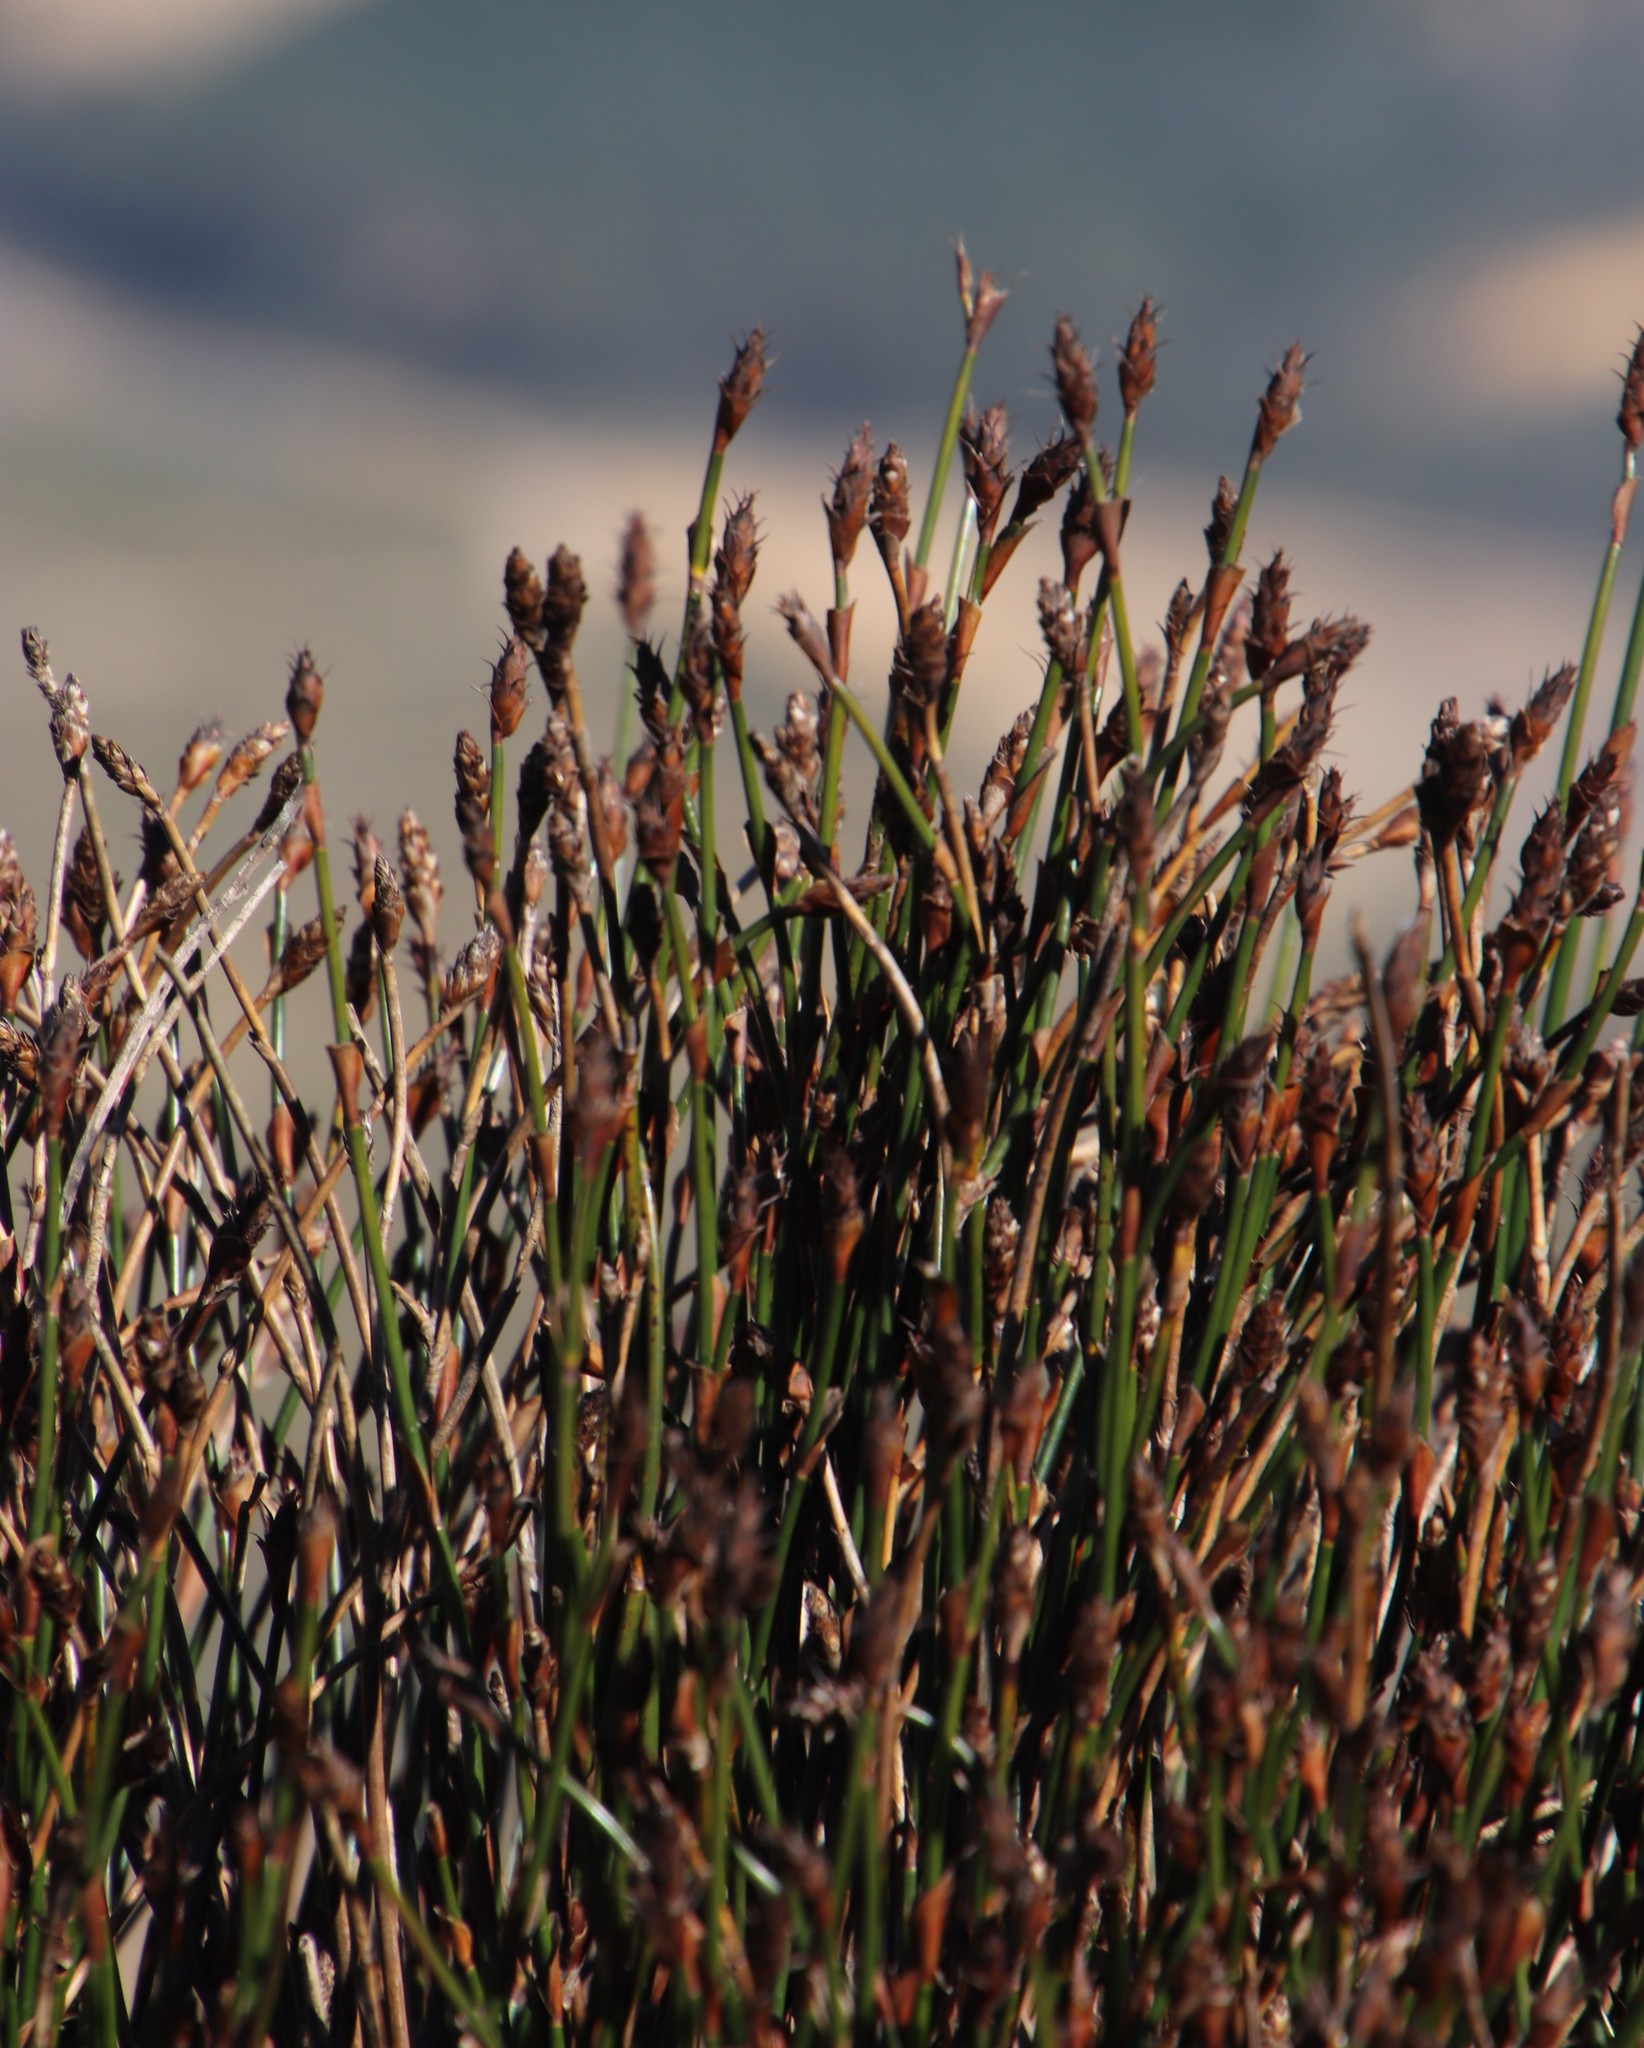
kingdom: Plantae
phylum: Tracheophyta
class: Liliopsida
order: Poales
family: Restionaceae
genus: Restio
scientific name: Restio fraternus
